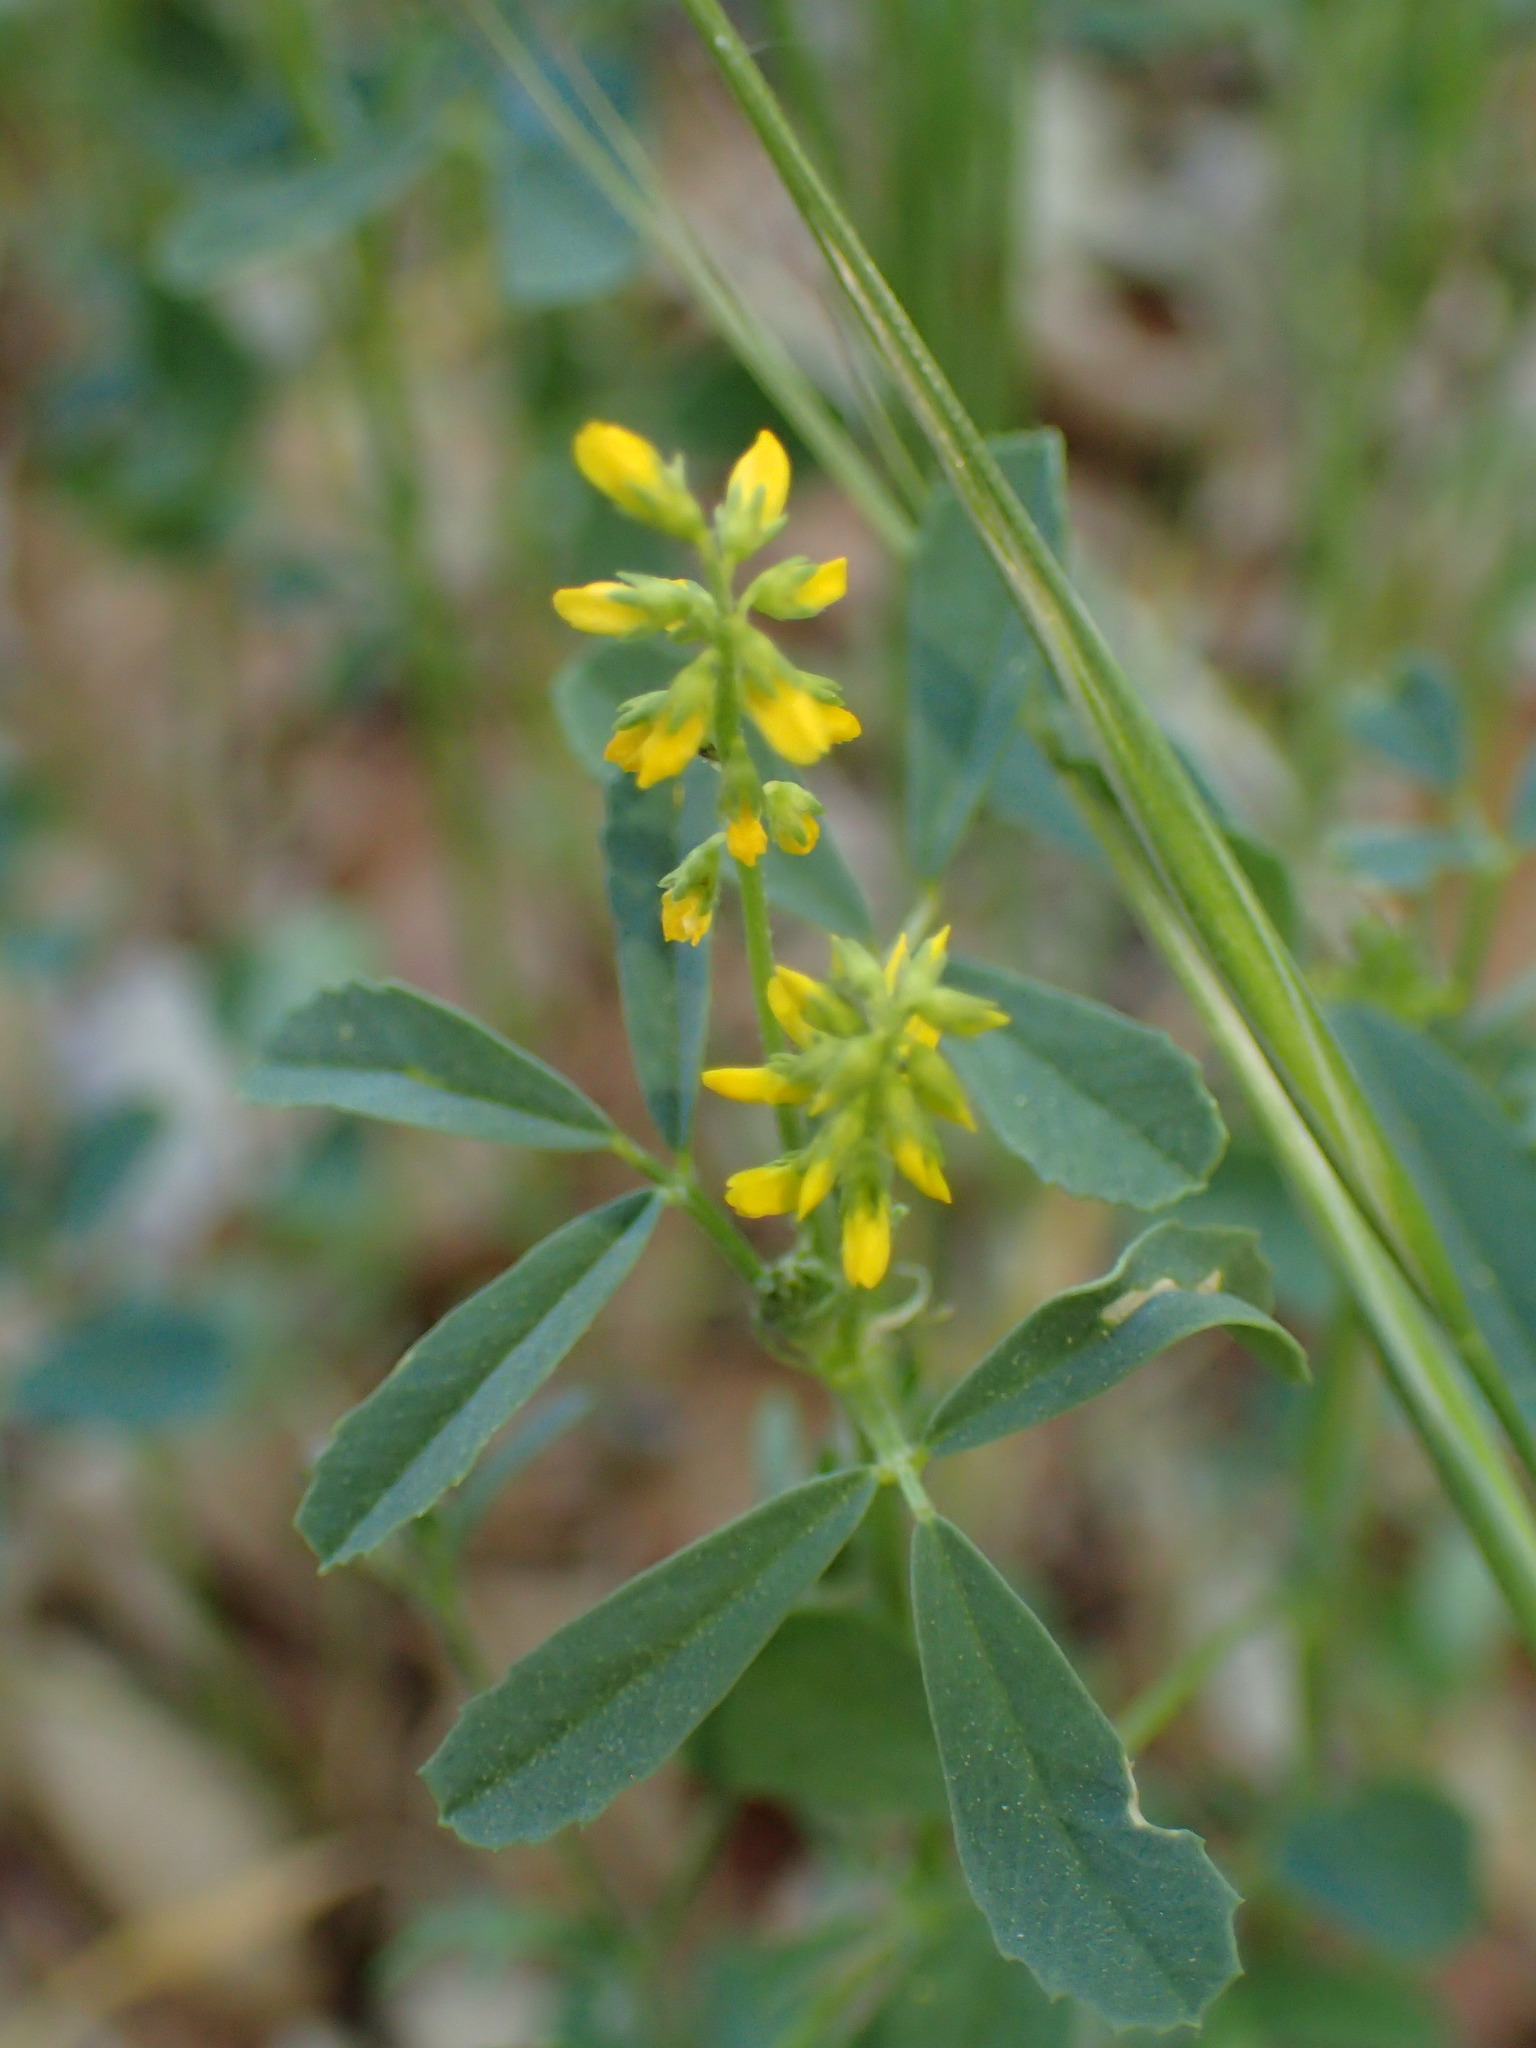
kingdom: Plantae
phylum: Tracheophyta
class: Magnoliopsida
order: Fabales
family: Fabaceae
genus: Melilotus
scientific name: Melilotus indicus
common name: Small melilot
